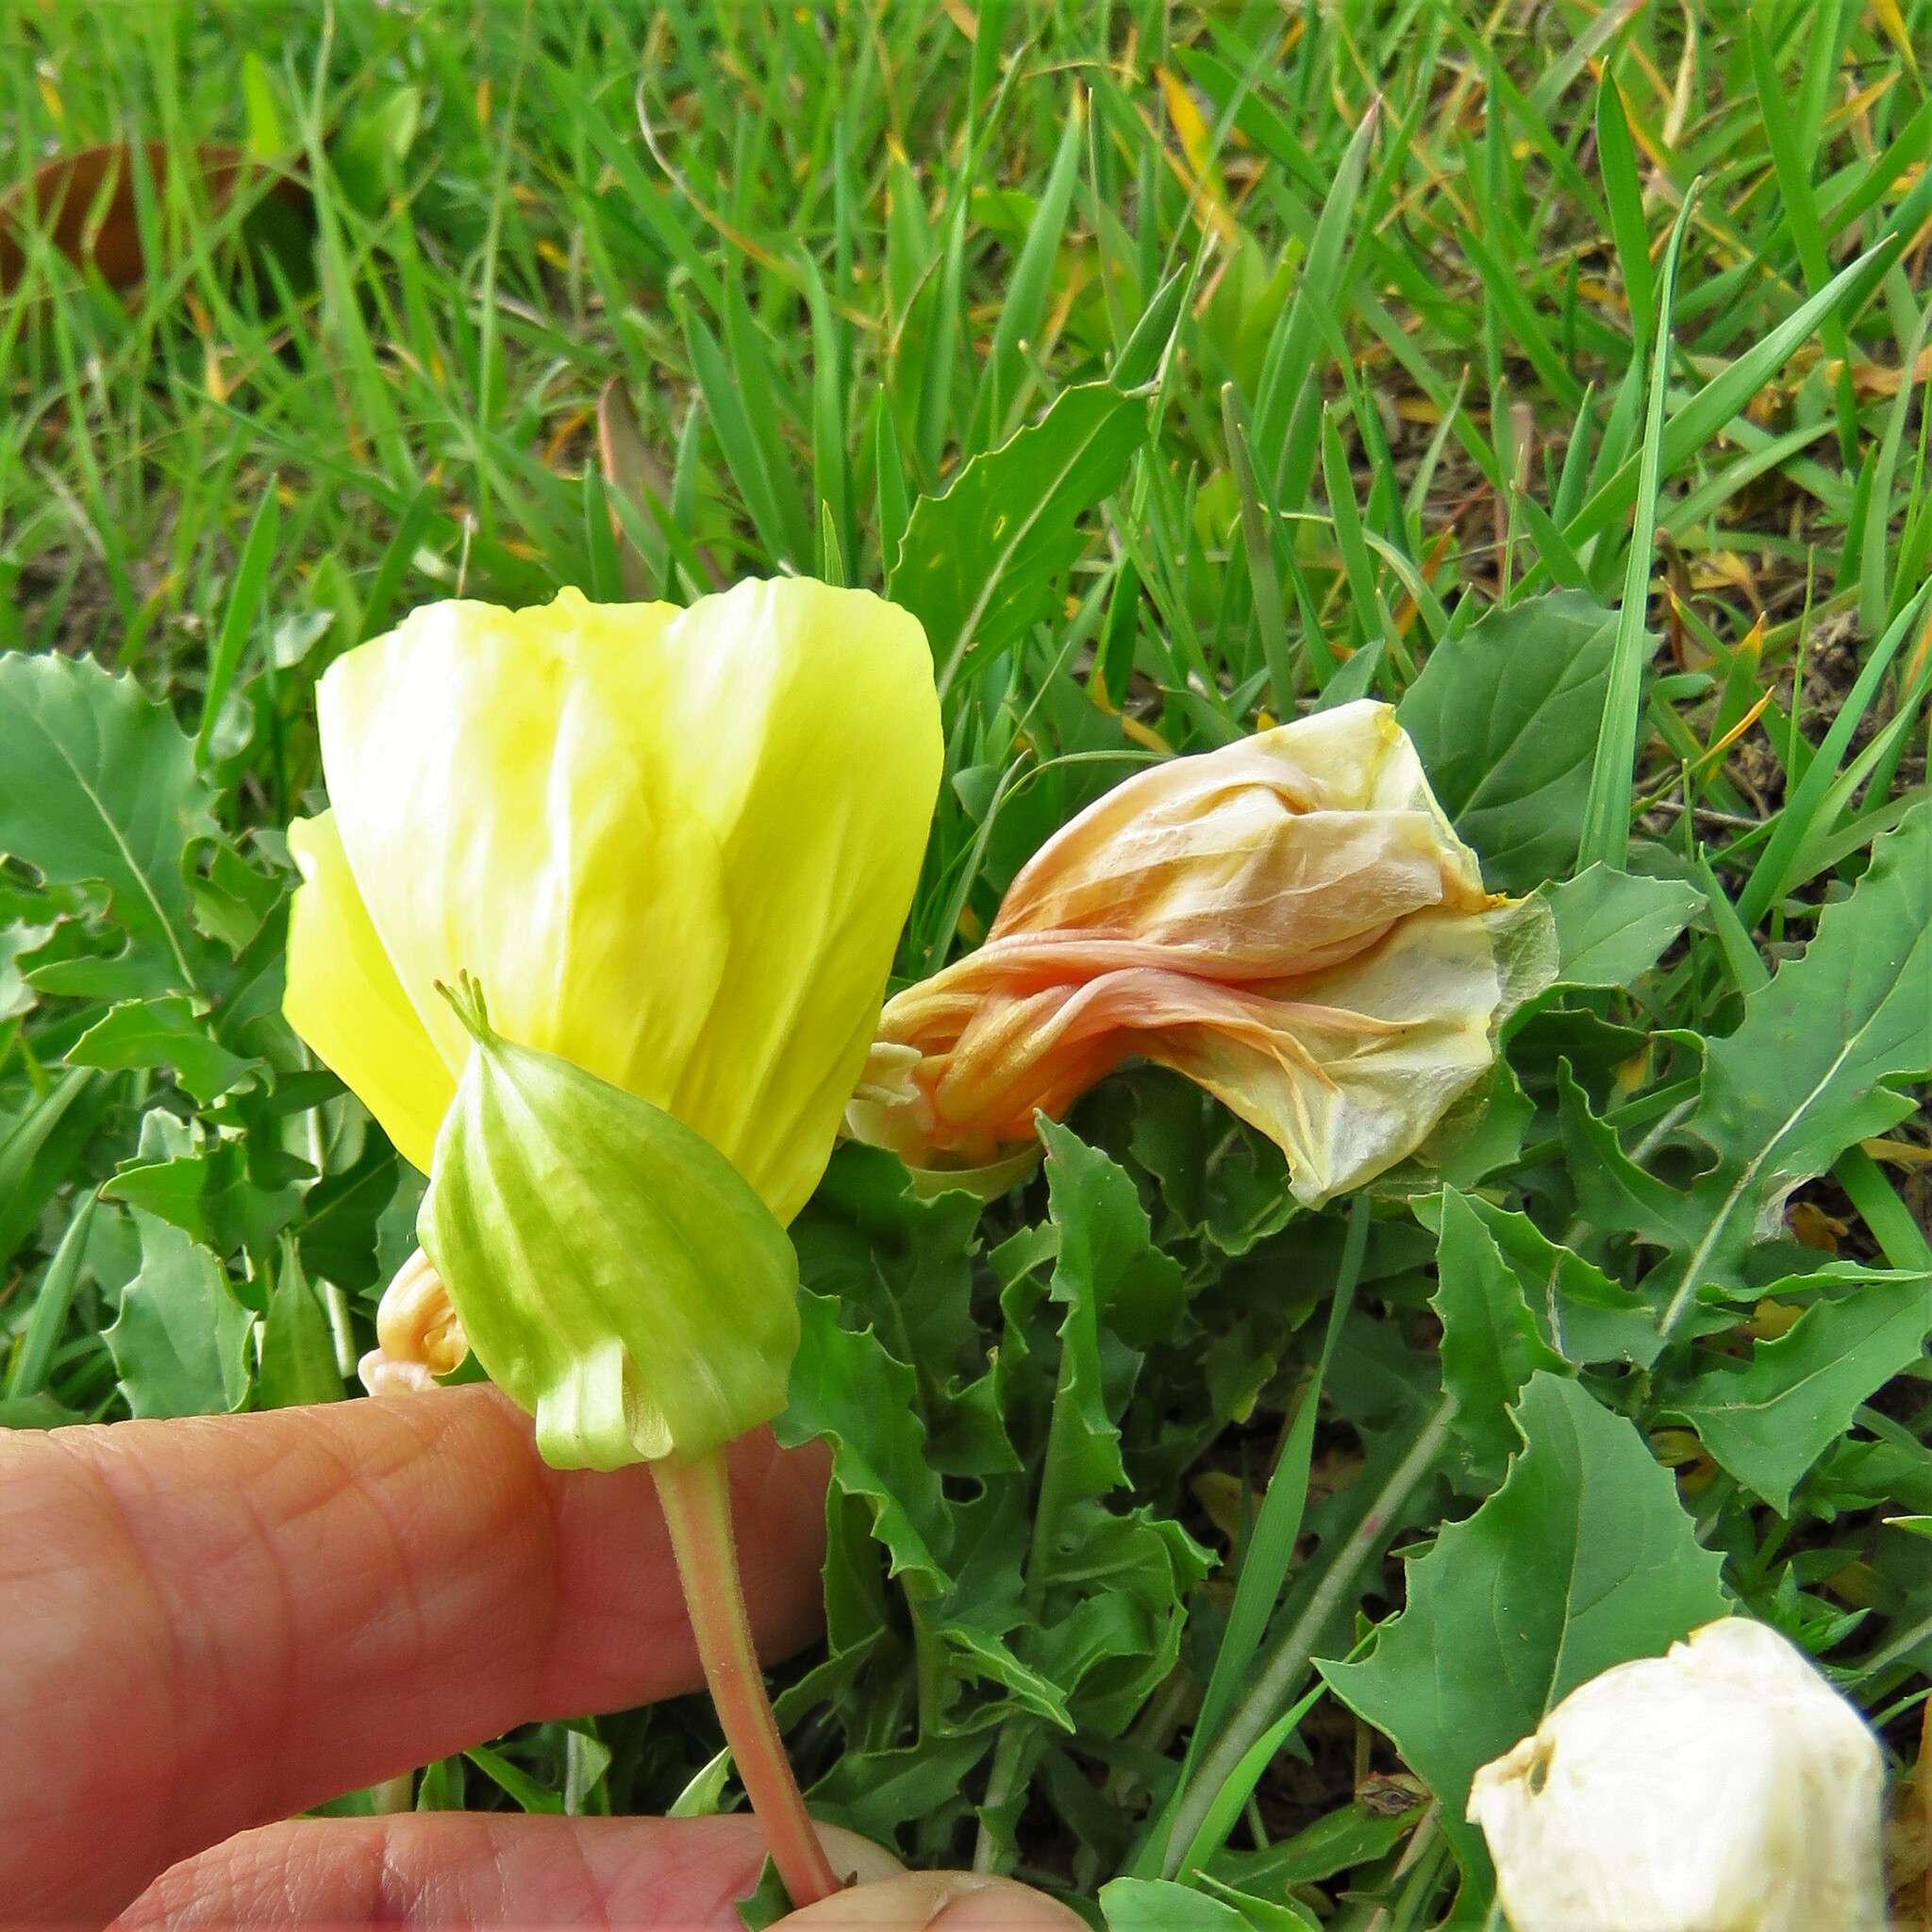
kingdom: Plantae
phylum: Tracheophyta
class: Magnoliopsida
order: Myrtales
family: Onagraceae
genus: Oenothera
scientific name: Oenothera triloba
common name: Sessile evening-primrose
